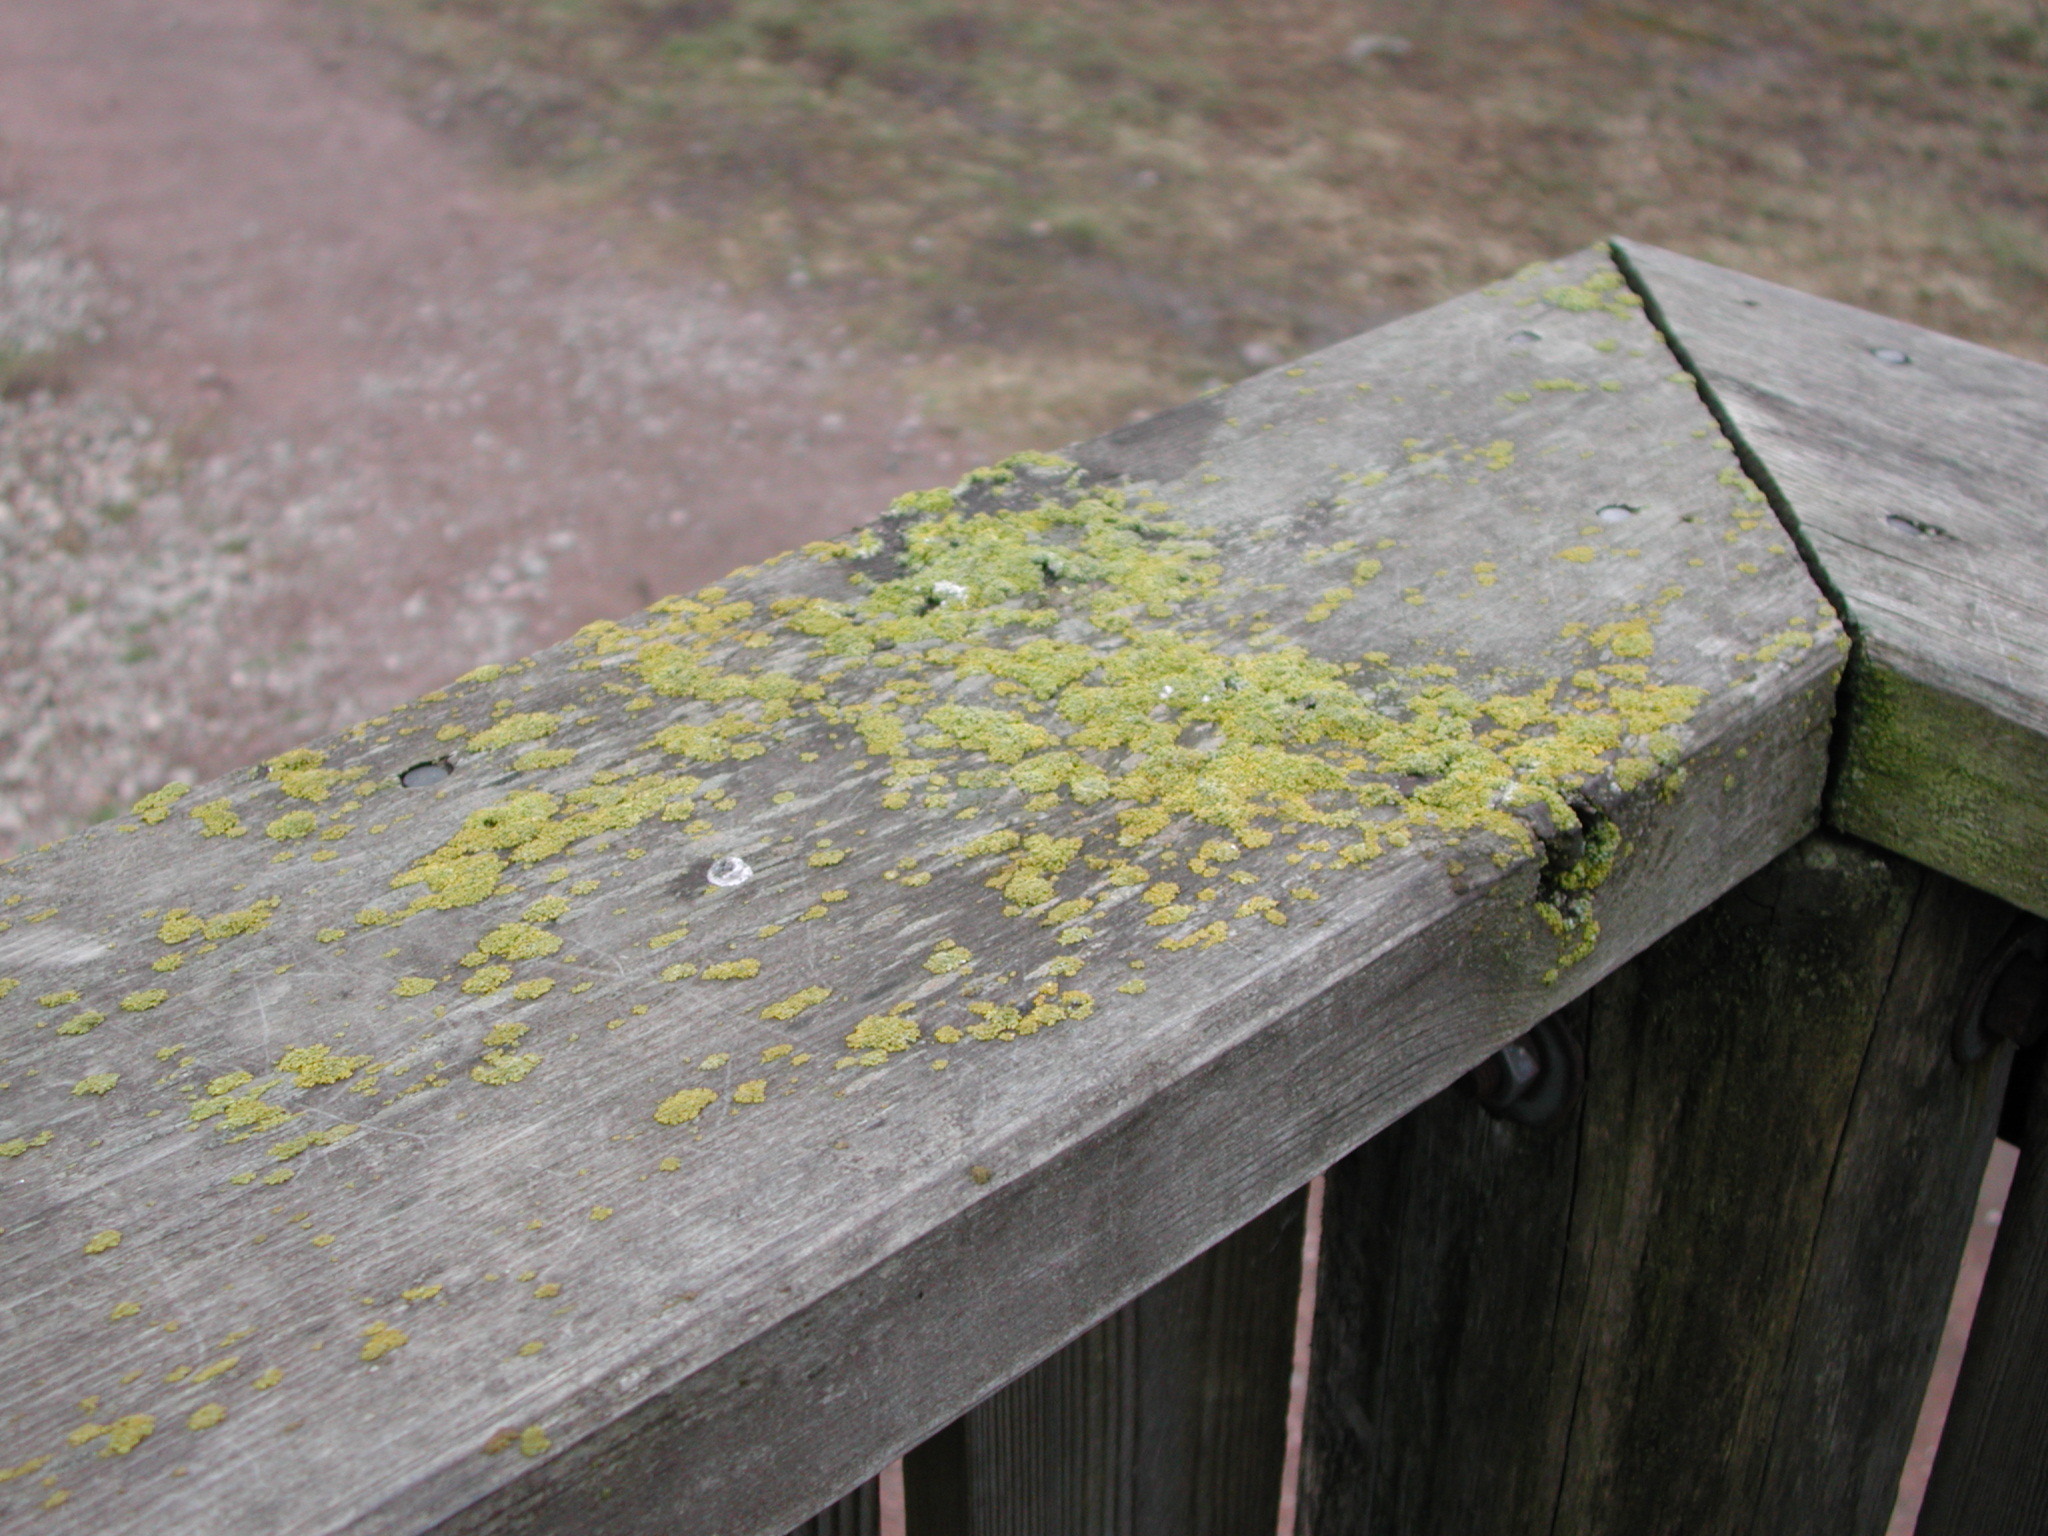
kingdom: Fungi
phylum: Ascomycota
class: Lecanoromycetes
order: Teloschistales
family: Teloschistaceae
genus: Polycauliona
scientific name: Polycauliona polycarpa
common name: Pin-cushion sunburst lichen
